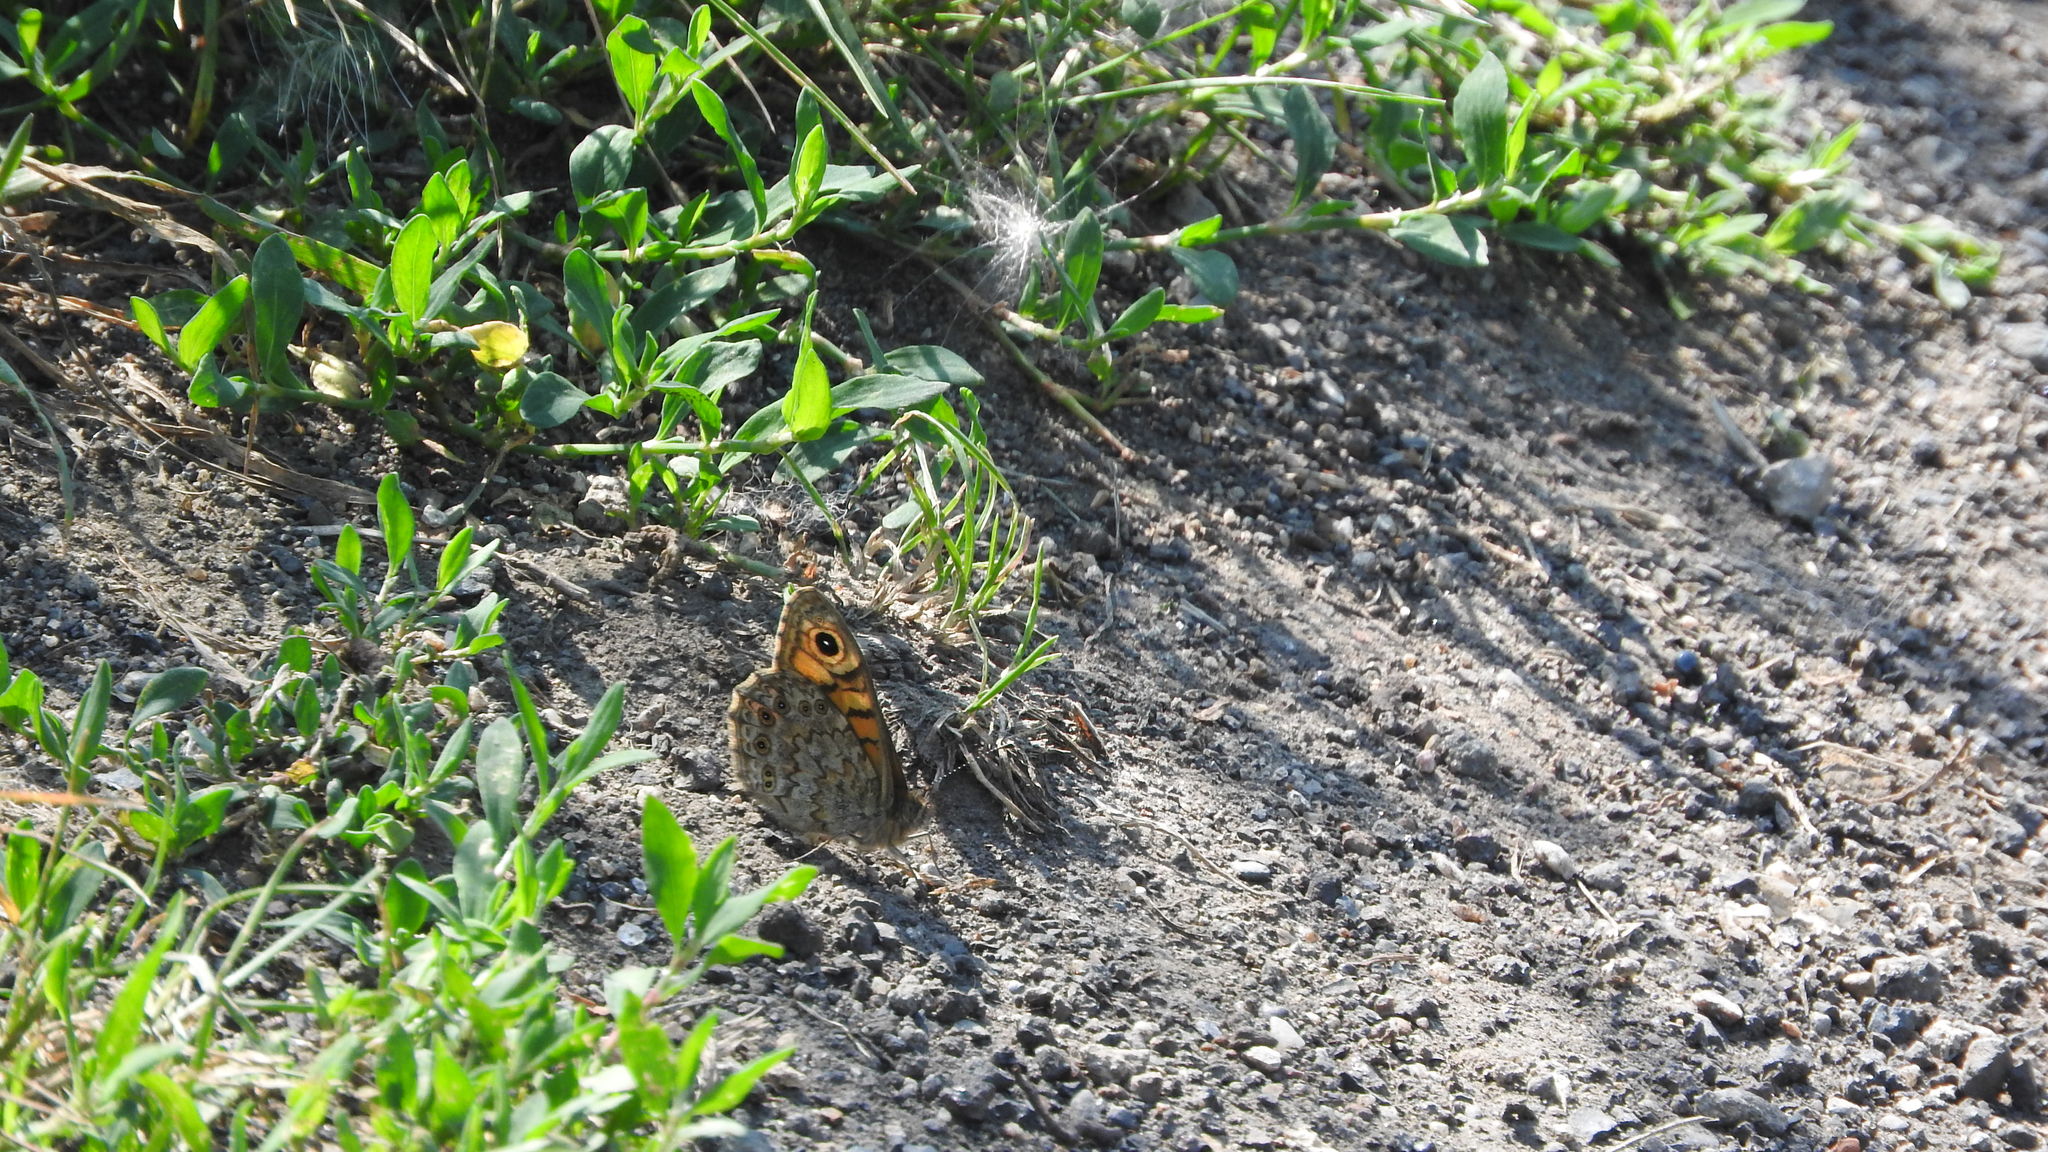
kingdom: Animalia
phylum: Arthropoda
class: Insecta
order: Lepidoptera
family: Nymphalidae
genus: Pararge
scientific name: Pararge Lasiommata megera
